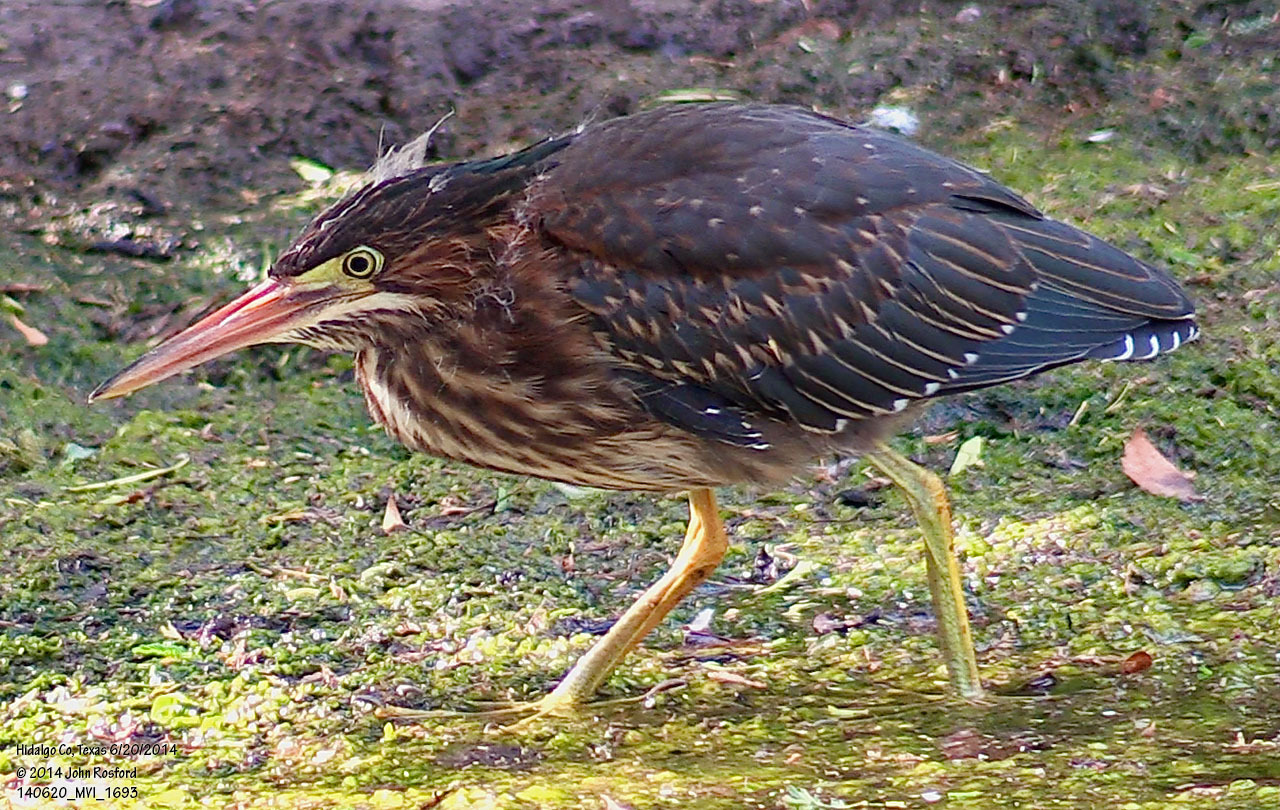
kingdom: Animalia
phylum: Chordata
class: Aves
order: Pelecaniformes
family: Ardeidae
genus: Butorides
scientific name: Butorides virescens
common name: Green heron
